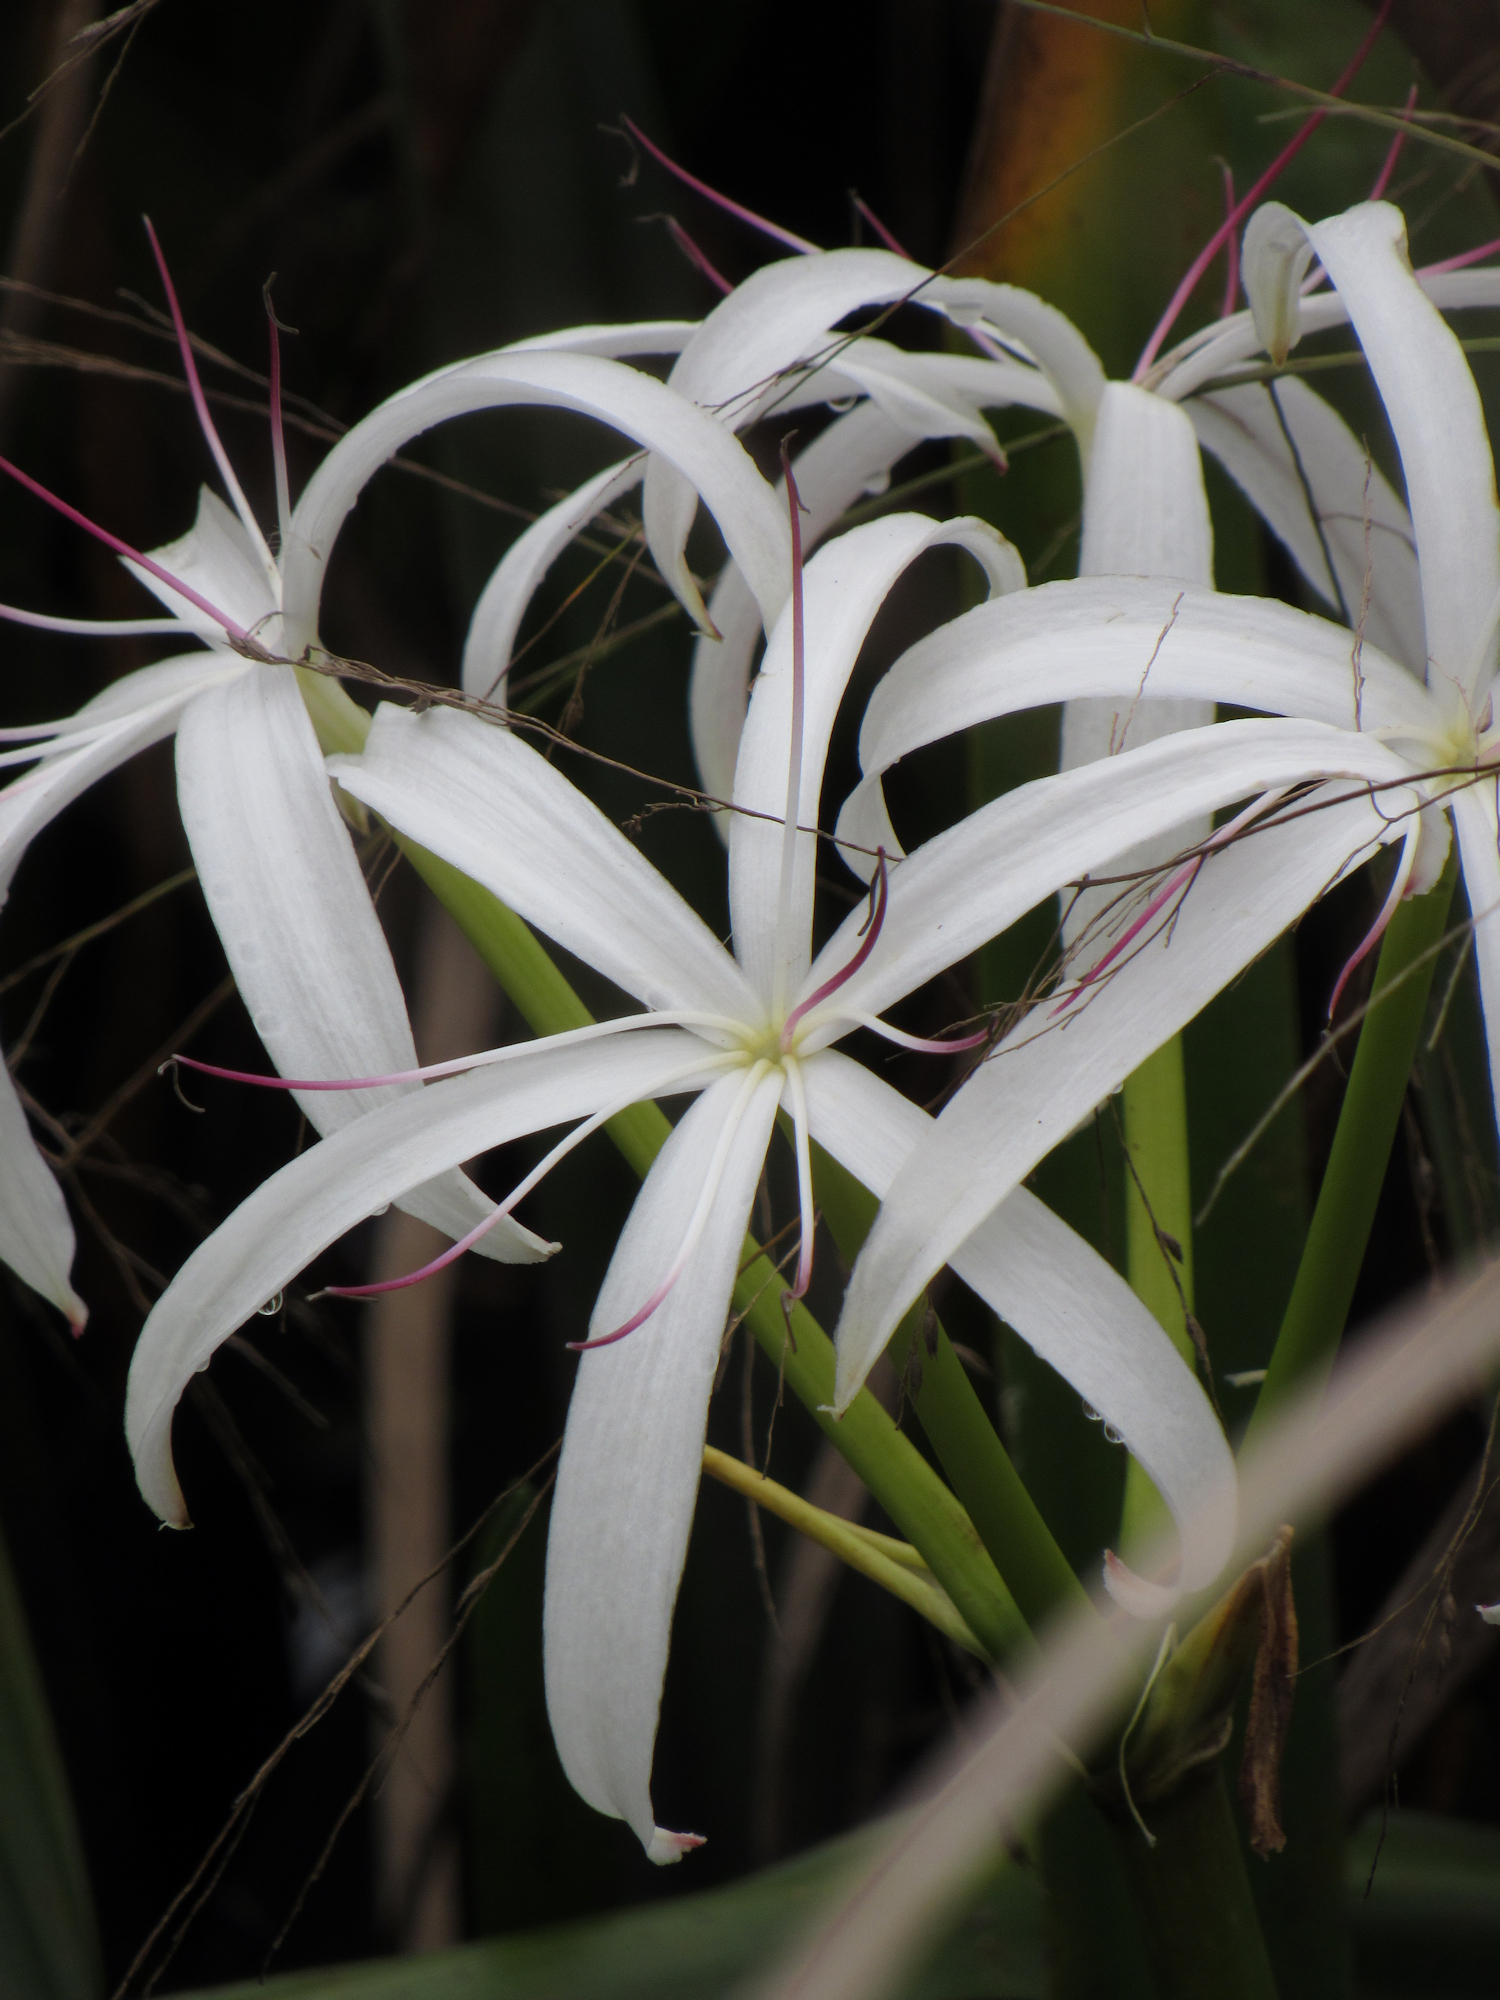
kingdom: Plantae
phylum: Tracheophyta
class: Liliopsida
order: Asparagales
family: Amaryllidaceae
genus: Crinum
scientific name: Crinum americanum
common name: Florida swamp-lily
